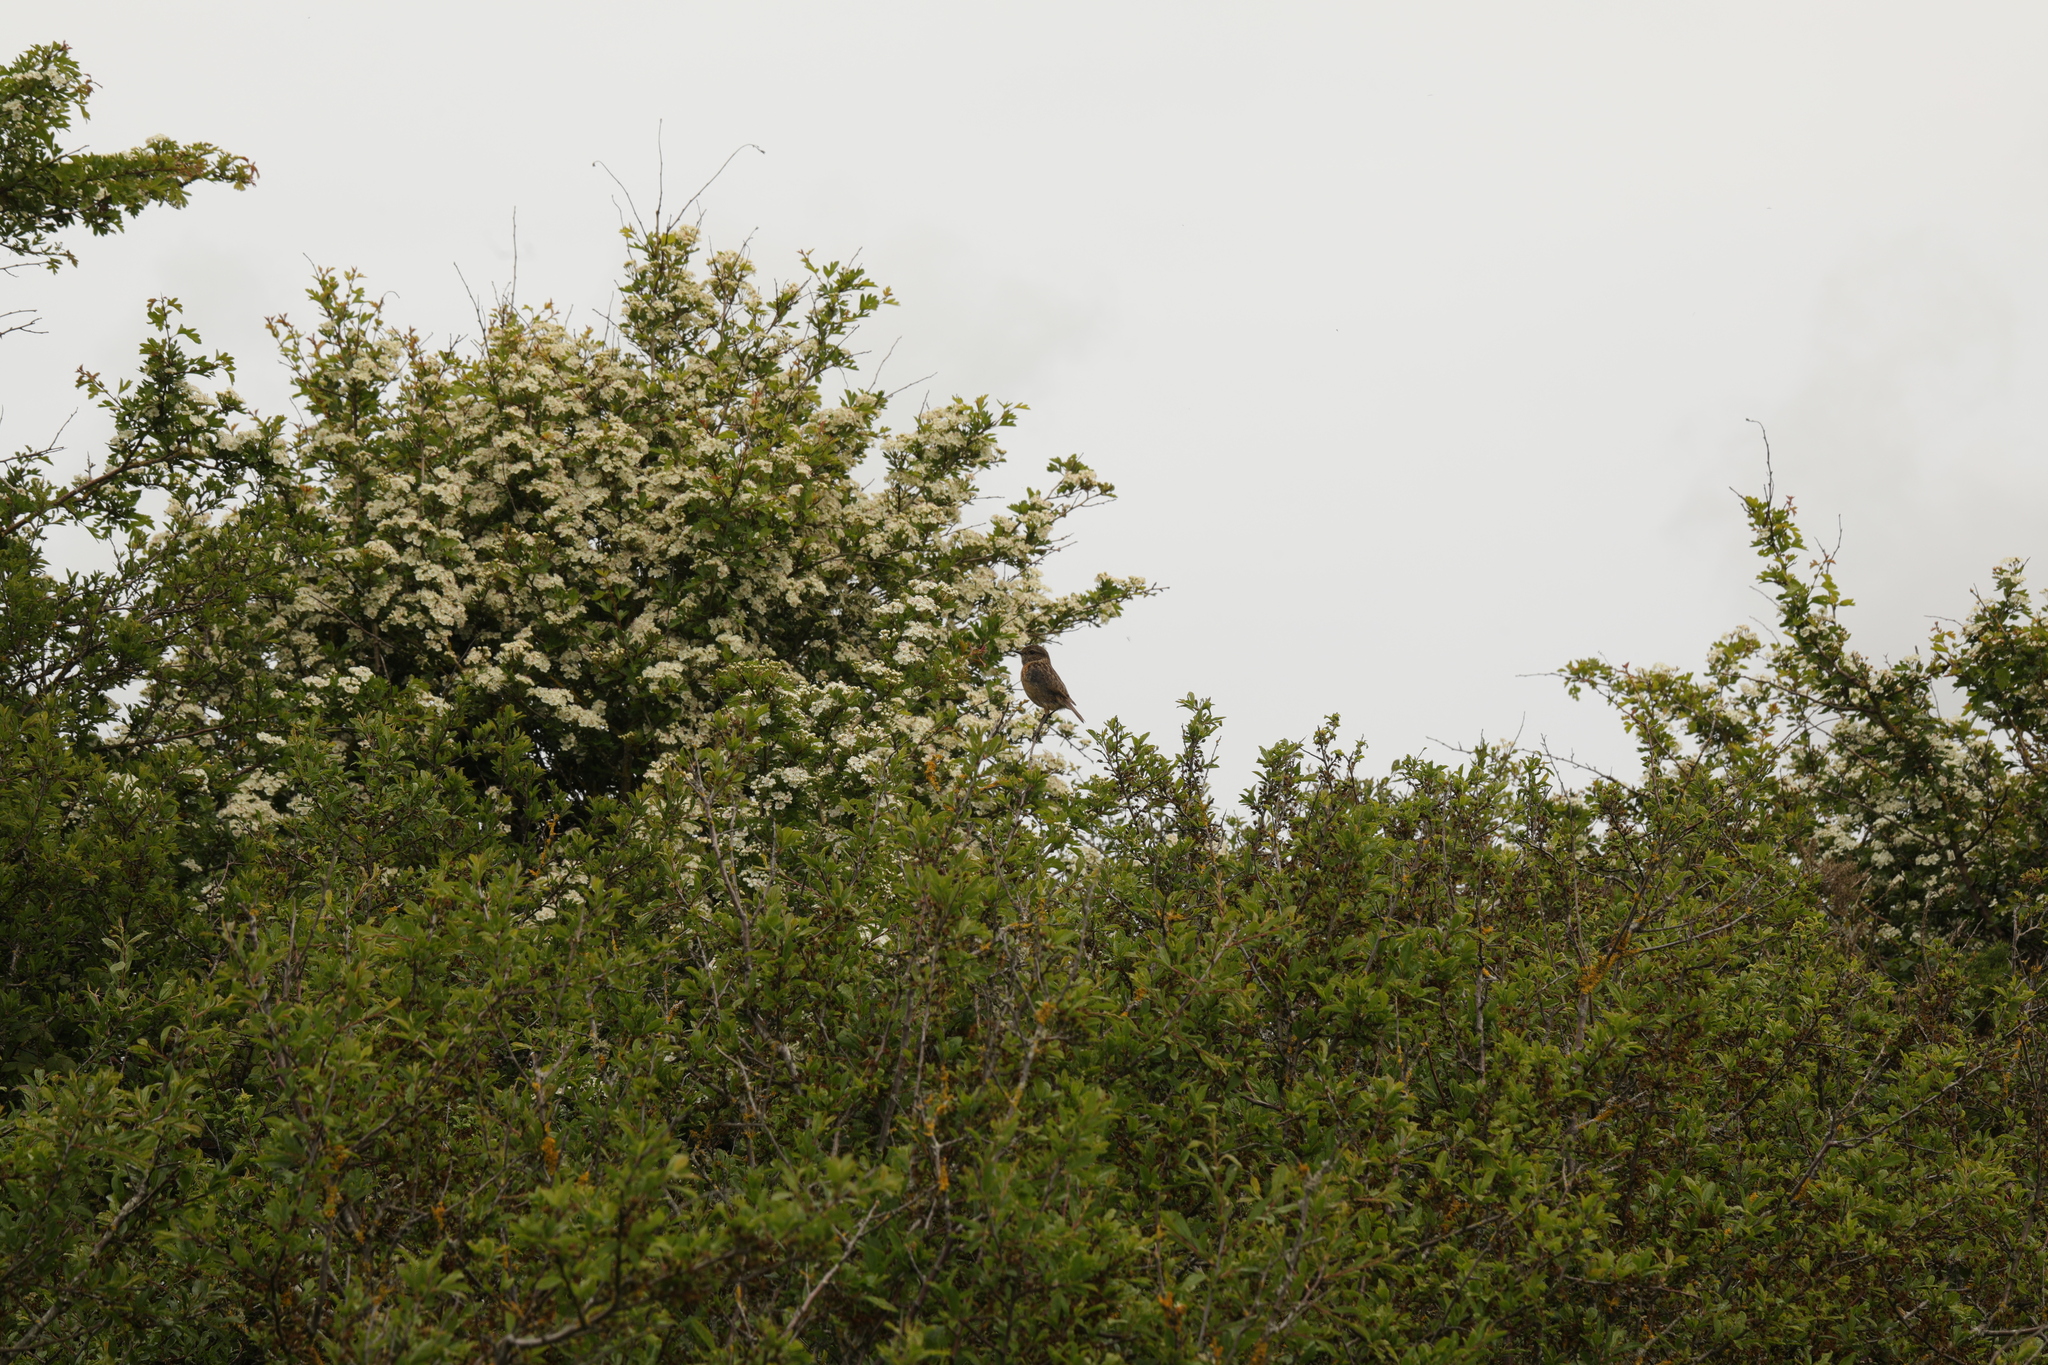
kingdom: Animalia
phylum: Chordata
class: Aves
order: Passeriformes
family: Muscicapidae
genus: Saxicola
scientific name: Saxicola rubicola
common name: European stonechat
